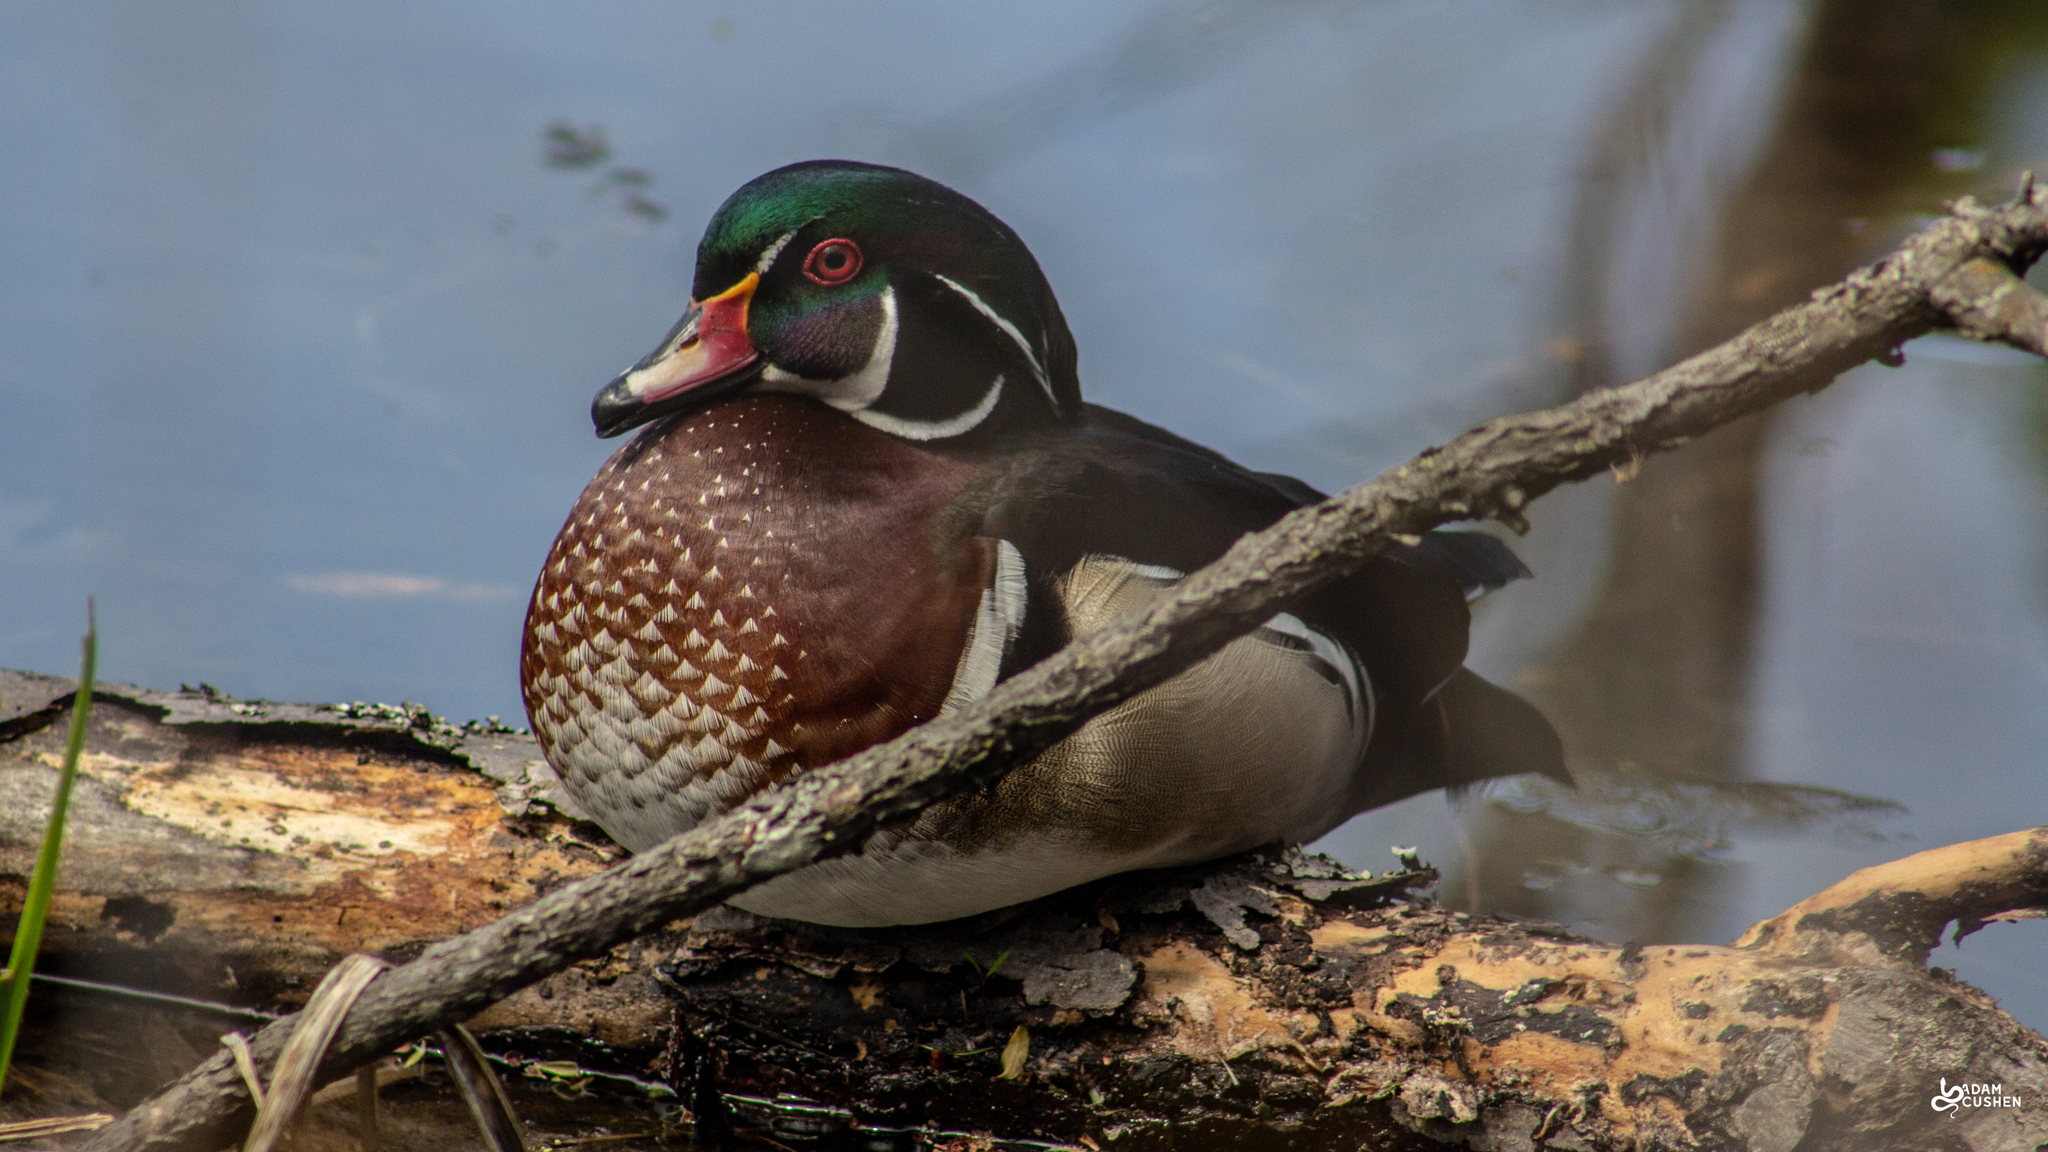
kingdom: Animalia
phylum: Chordata
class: Aves
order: Anseriformes
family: Anatidae
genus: Aix
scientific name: Aix sponsa
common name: Wood duck
